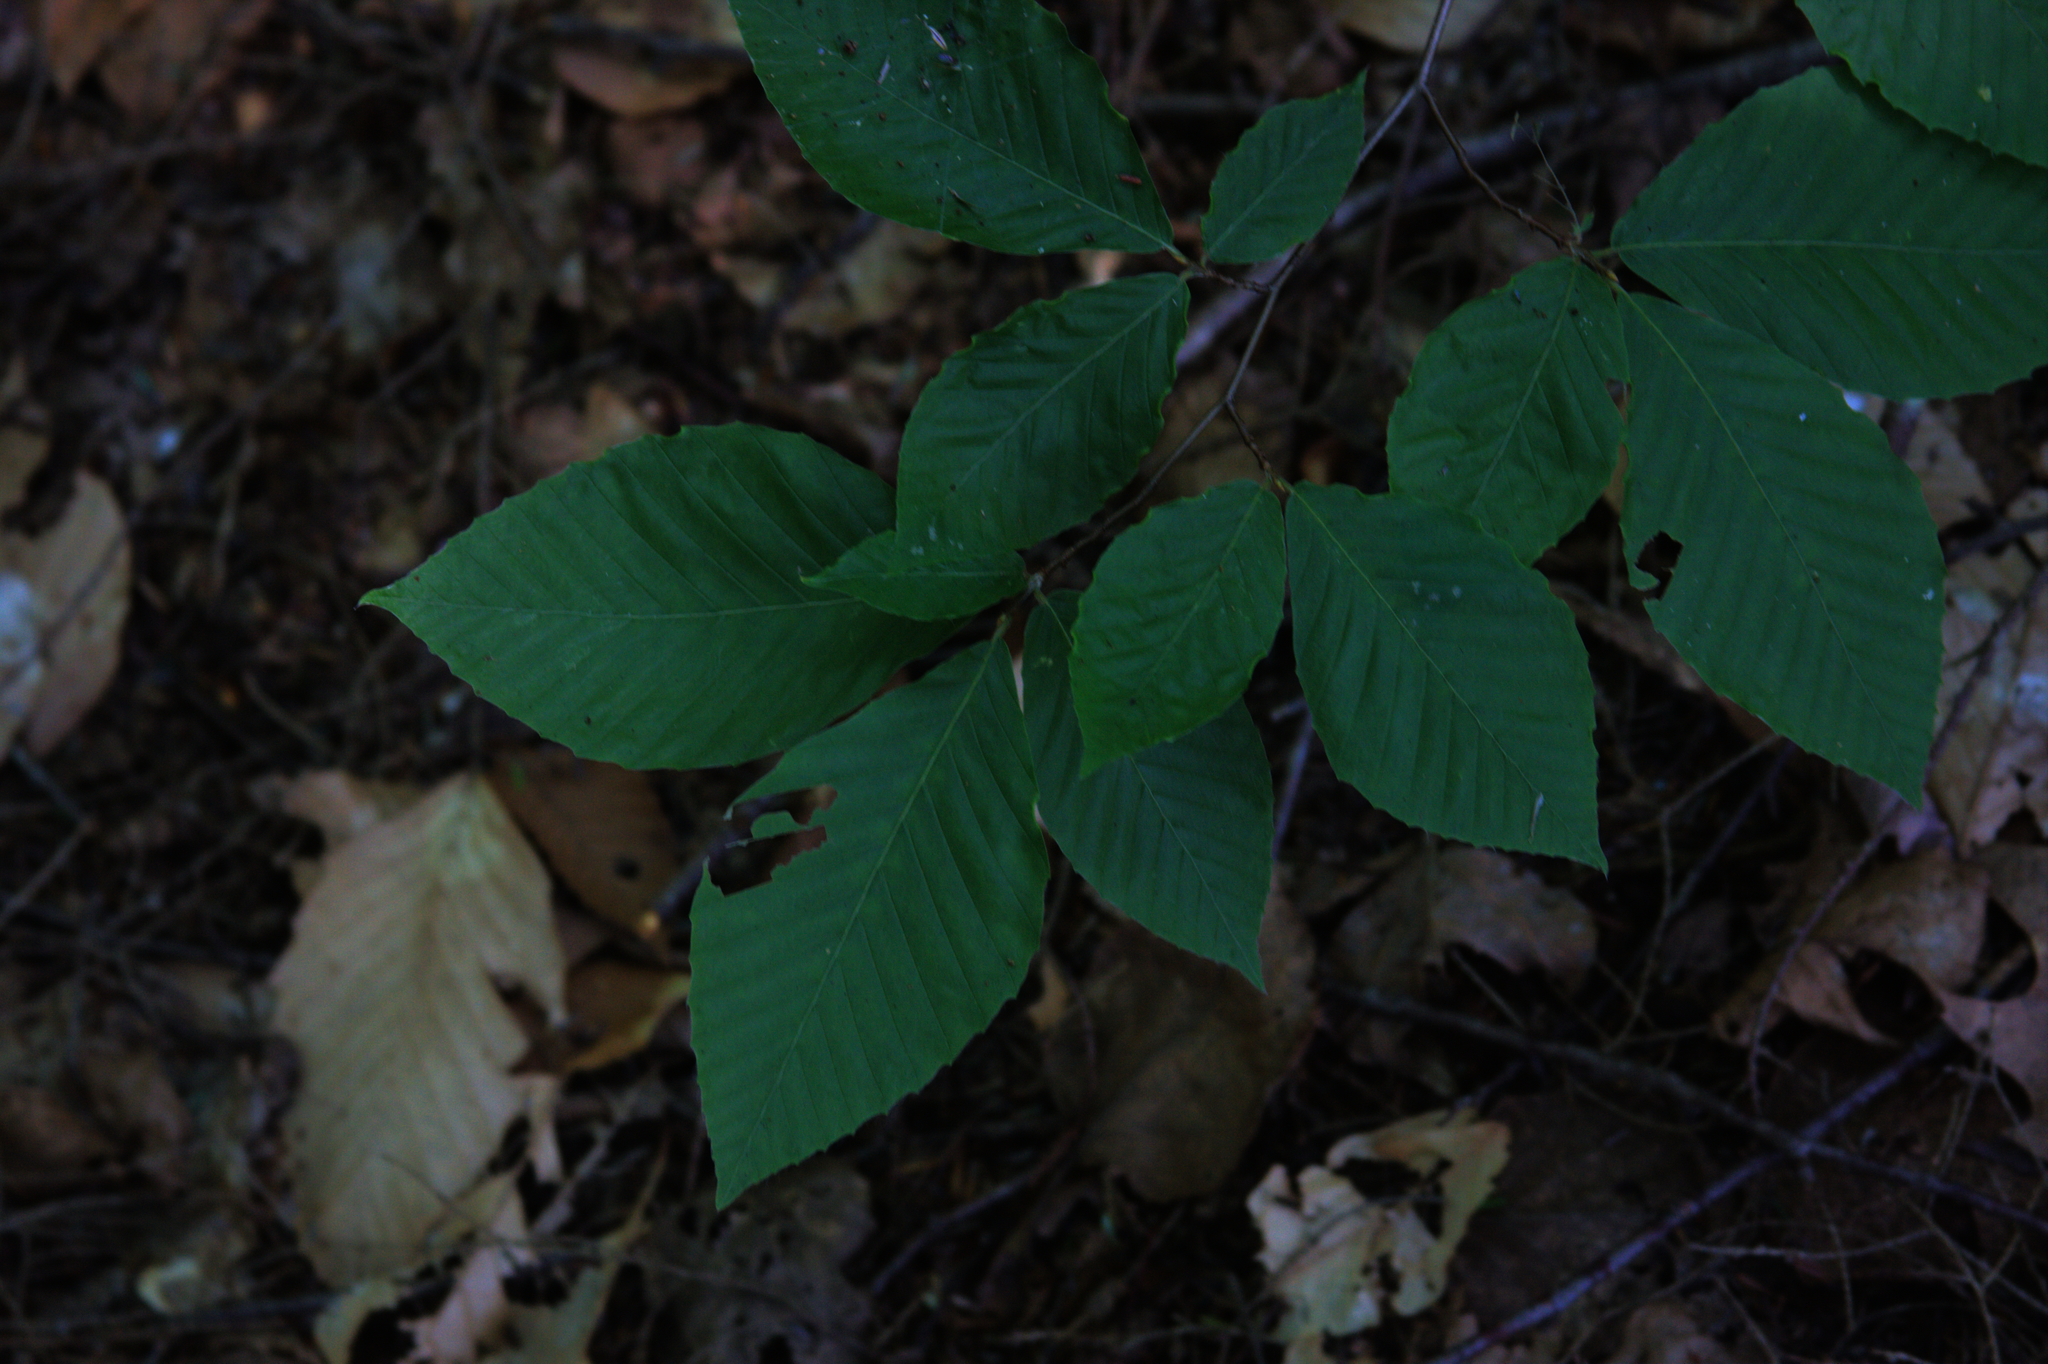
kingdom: Plantae
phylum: Tracheophyta
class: Magnoliopsida
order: Fagales
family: Fagaceae
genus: Fagus
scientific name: Fagus grandifolia
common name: American beech
